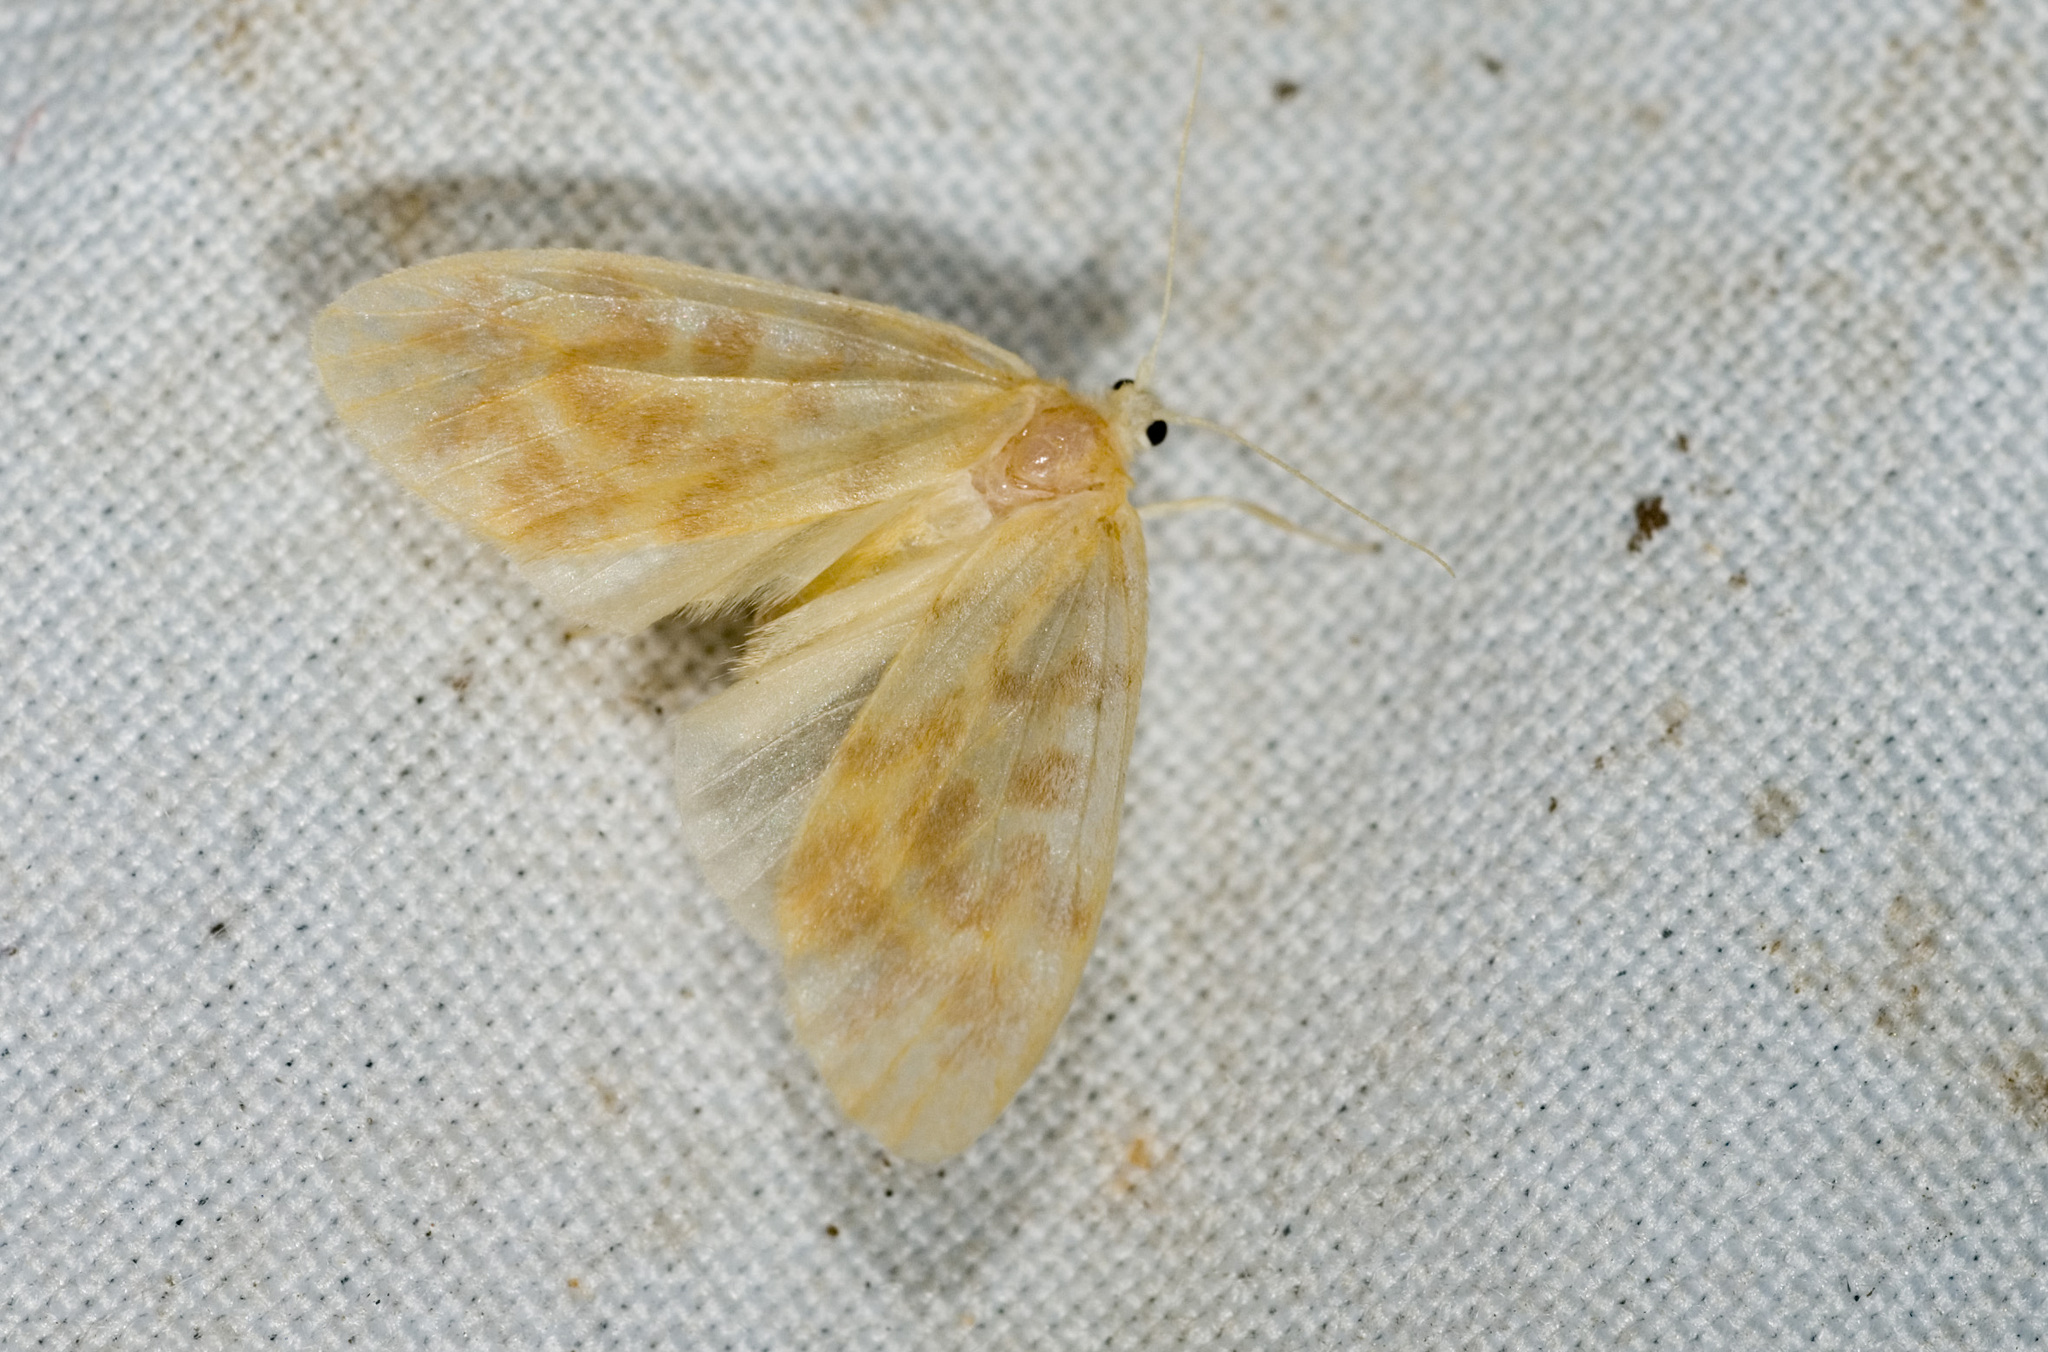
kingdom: Animalia
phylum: Arthropoda
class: Insecta
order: Lepidoptera
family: Erebidae
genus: Hemipsilia
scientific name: Hemipsilia coavestis
